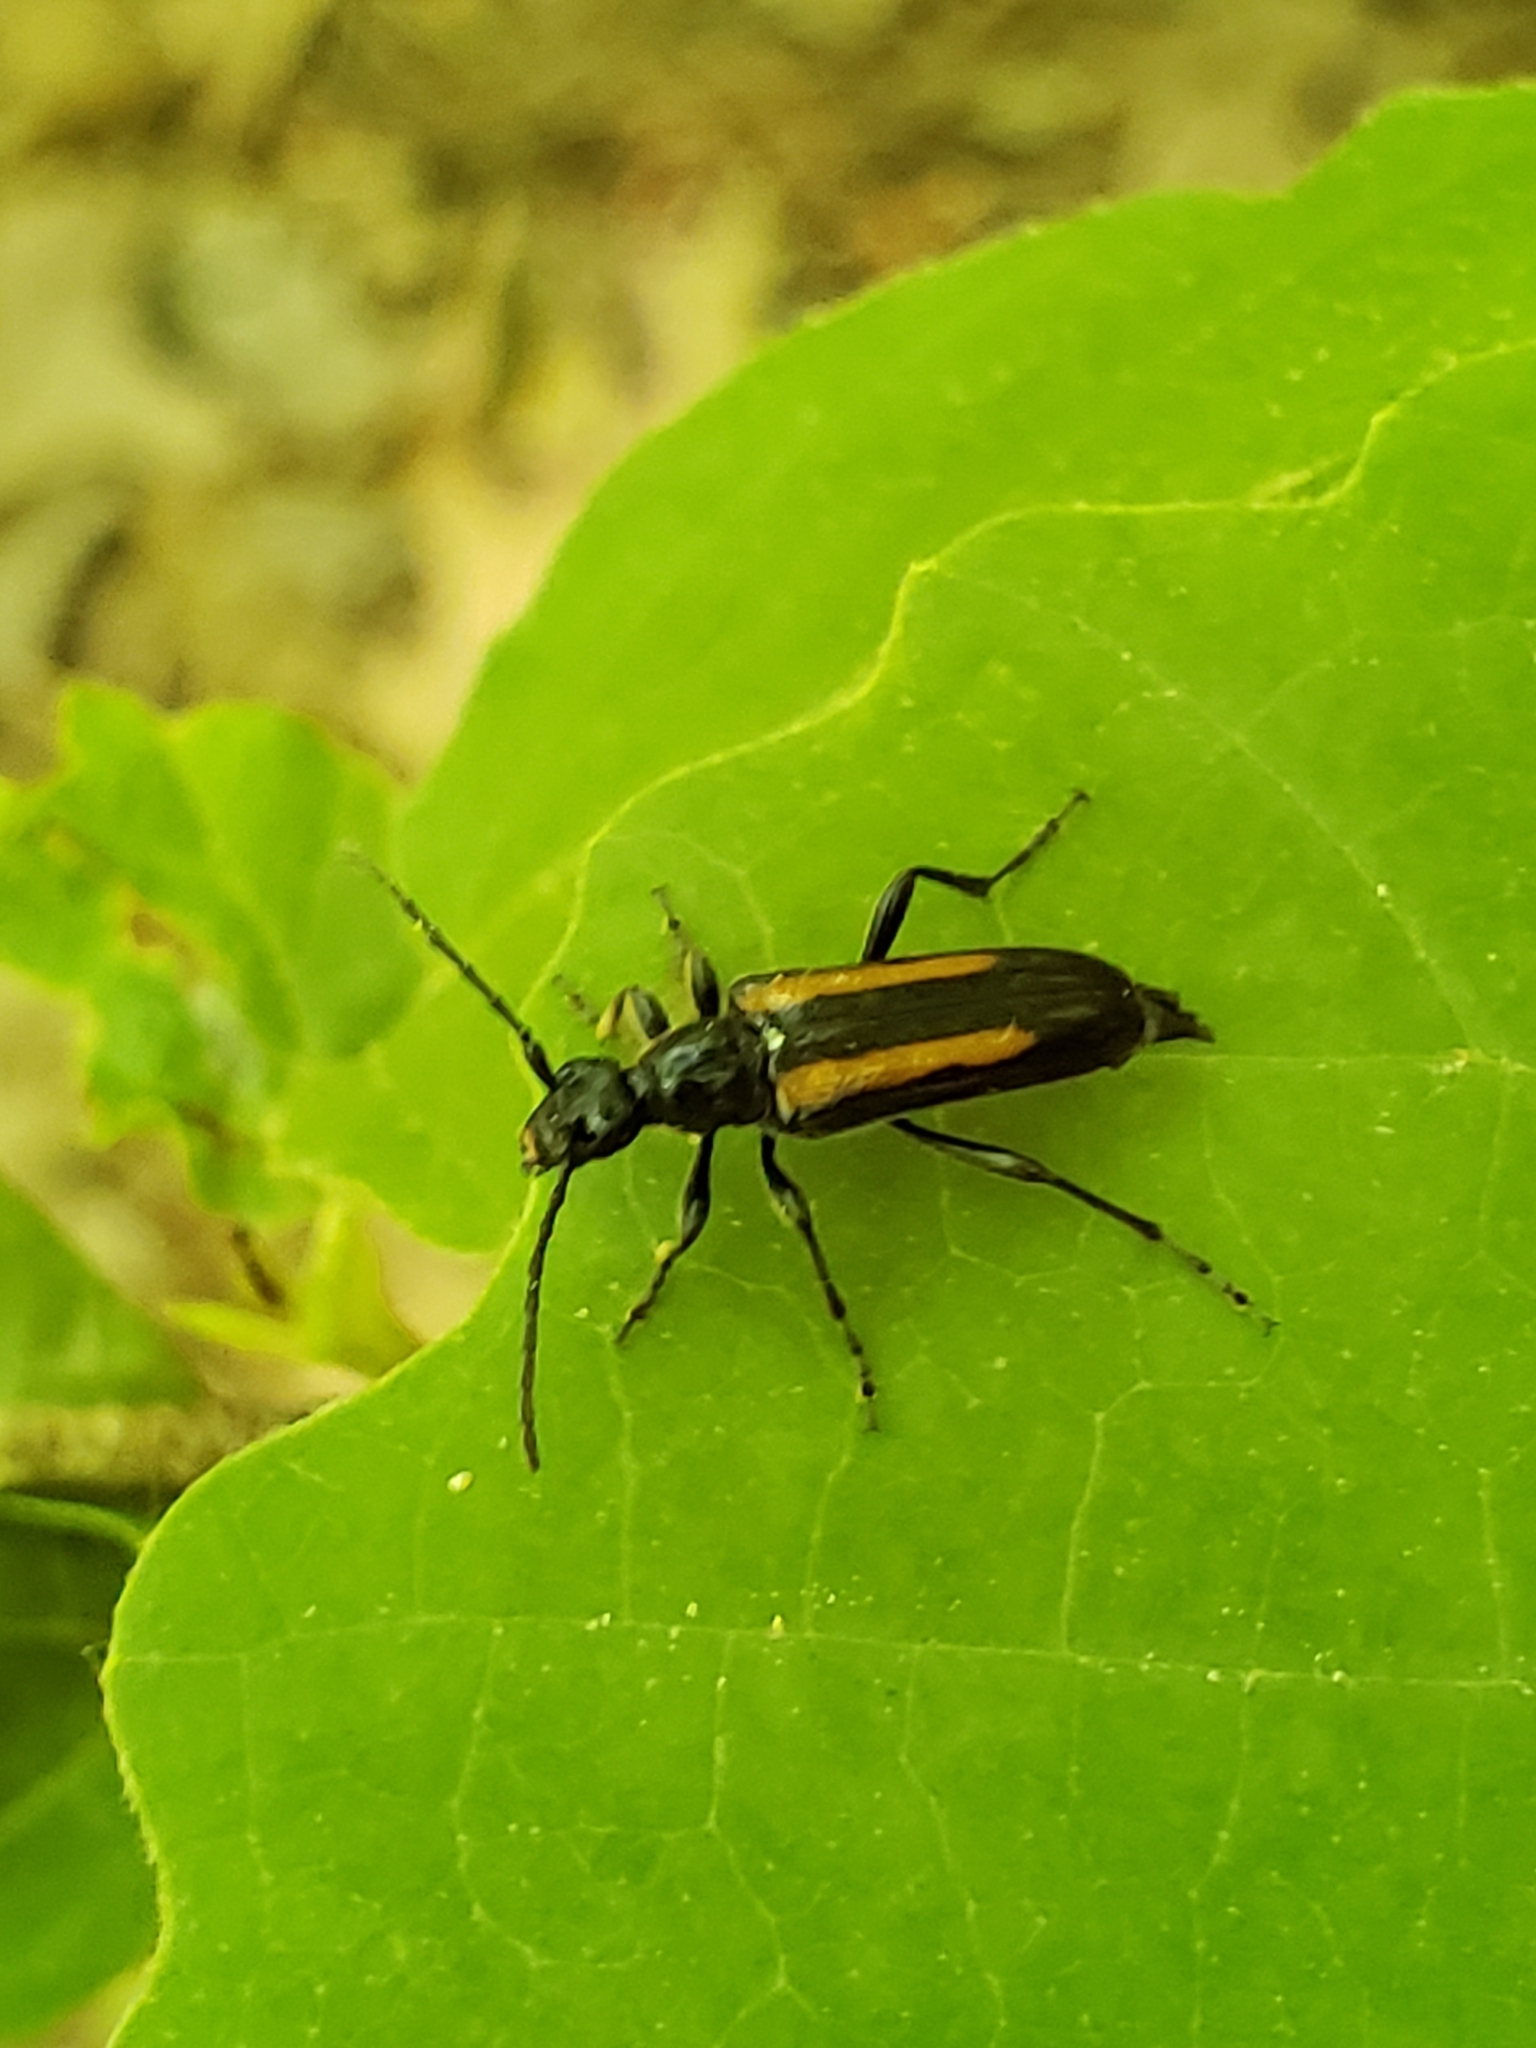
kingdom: Animalia
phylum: Arthropoda
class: Insecta
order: Coleoptera
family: Cerambycidae
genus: Strangalepta
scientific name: Strangalepta abbreviata
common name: Strangalepta flower longhorn beetle
